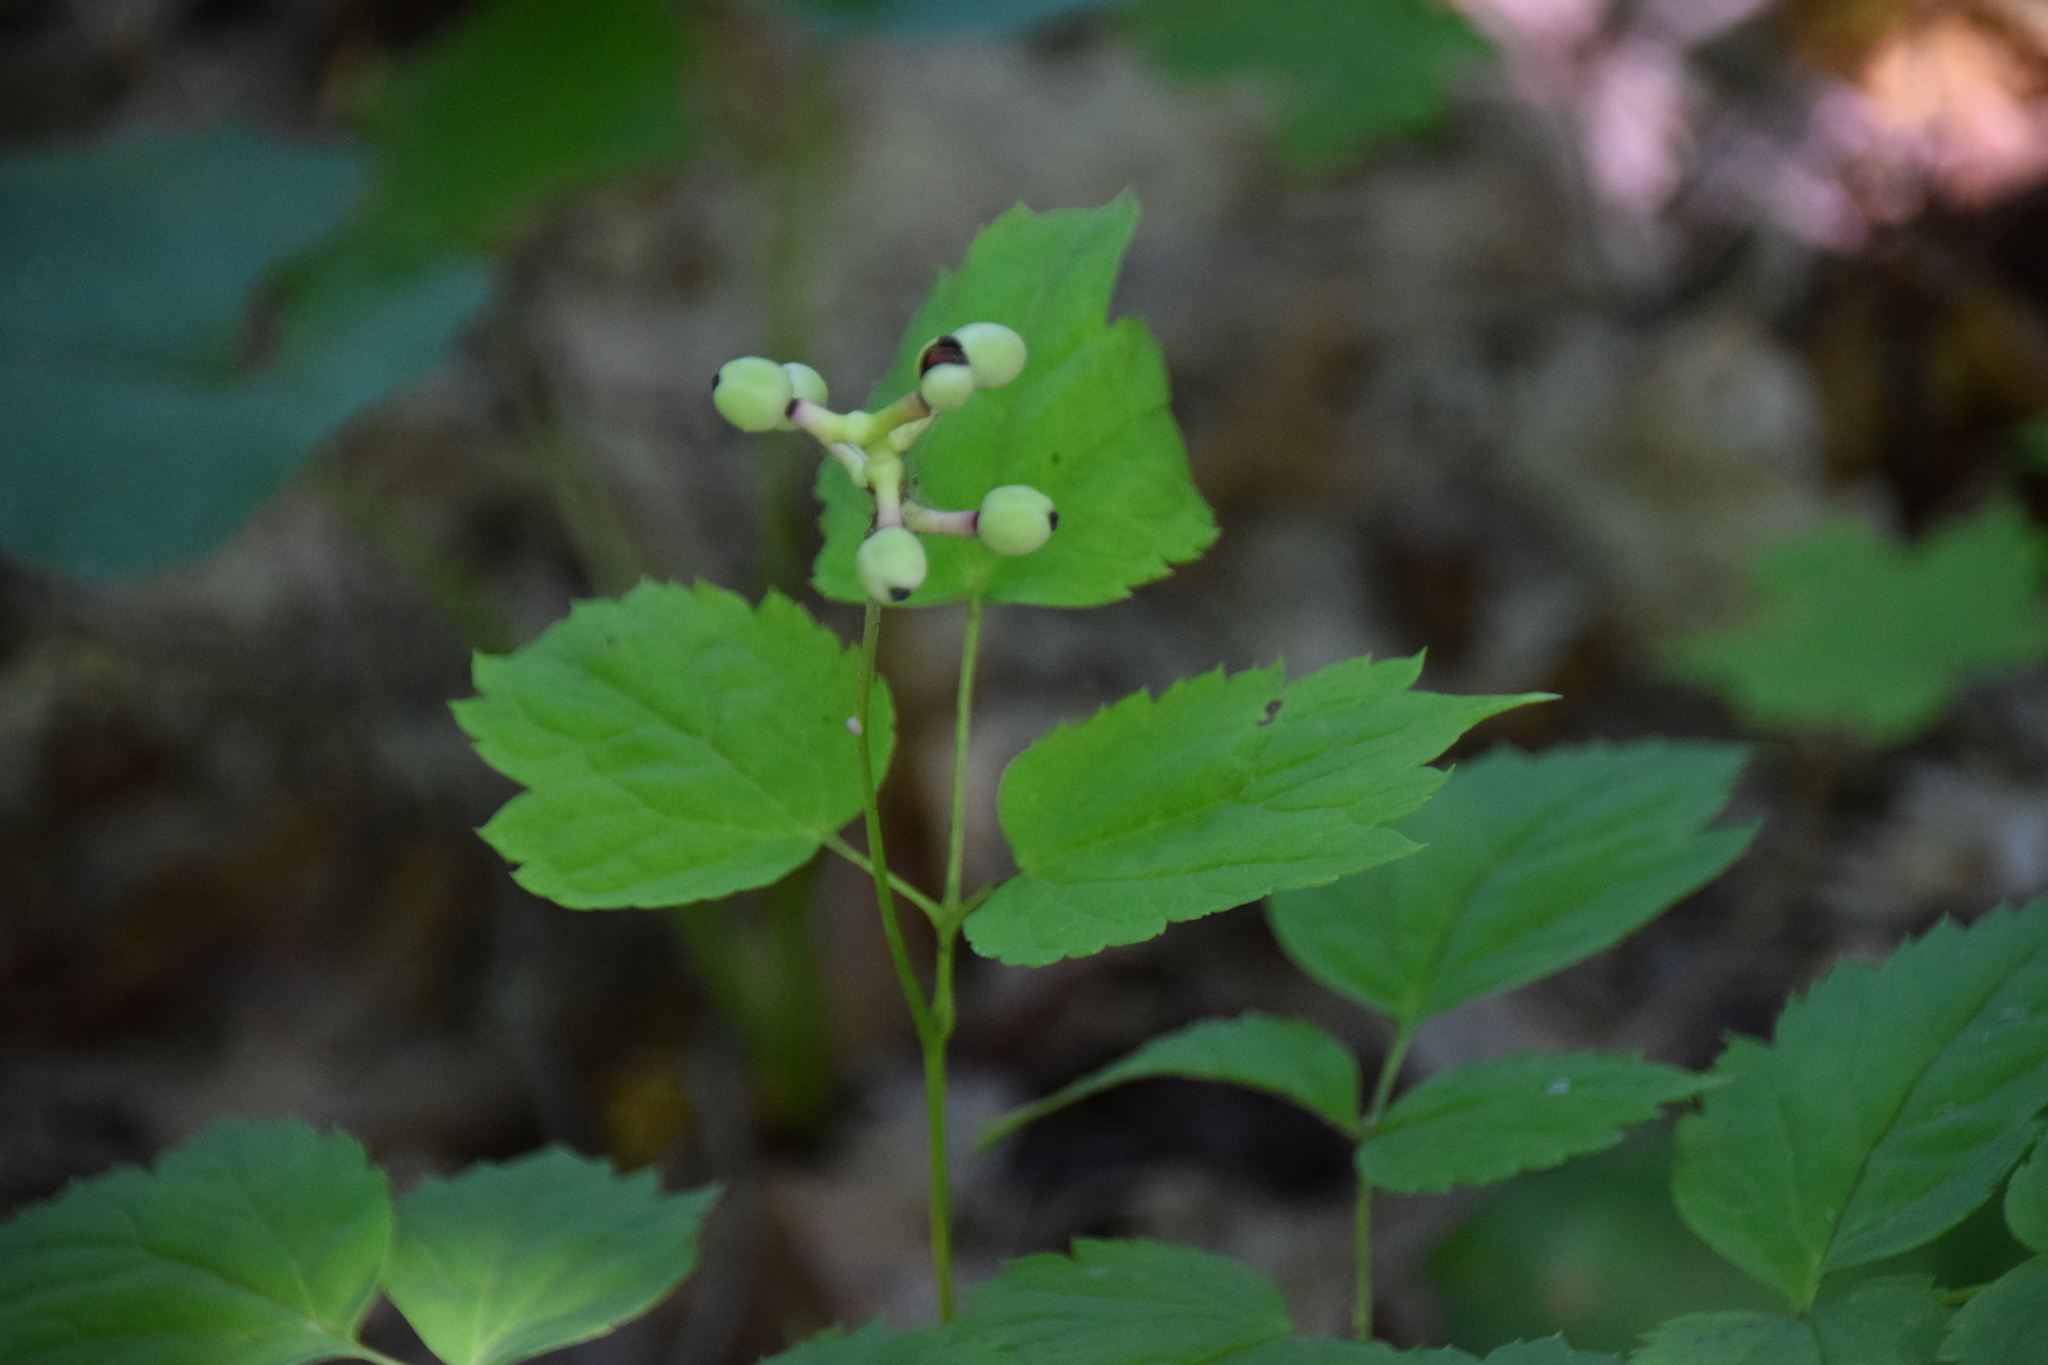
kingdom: Plantae
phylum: Tracheophyta
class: Magnoliopsida
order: Ranunculales
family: Ranunculaceae
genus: Actaea
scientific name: Actaea pachypoda
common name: Doll's-eyes
